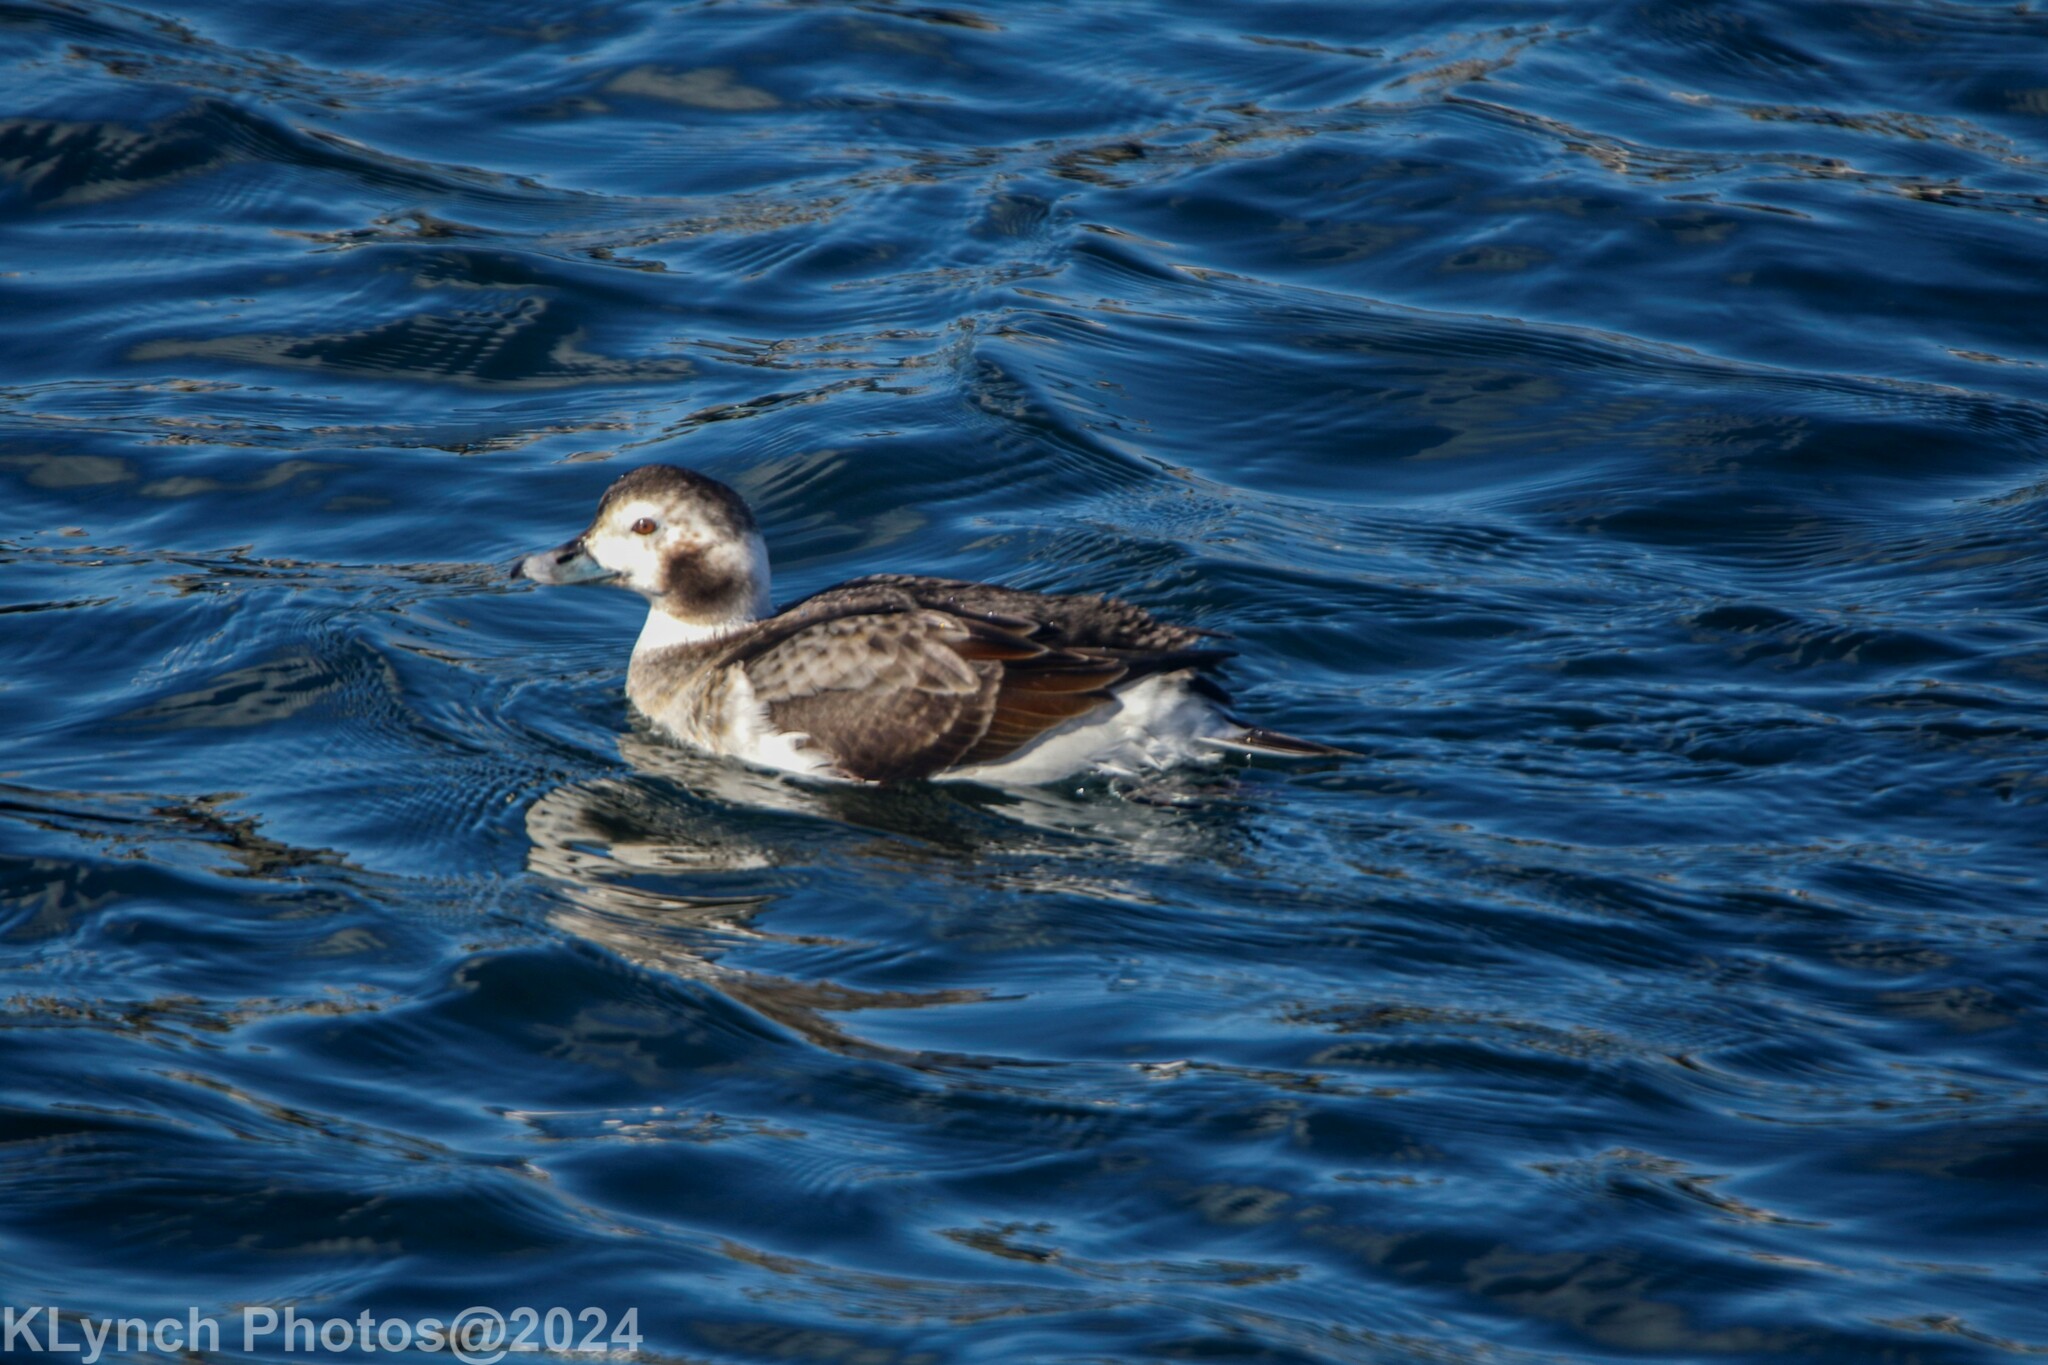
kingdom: Animalia
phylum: Chordata
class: Aves
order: Anseriformes
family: Anatidae
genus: Clangula
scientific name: Clangula hyemalis
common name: Long-tailed duck
